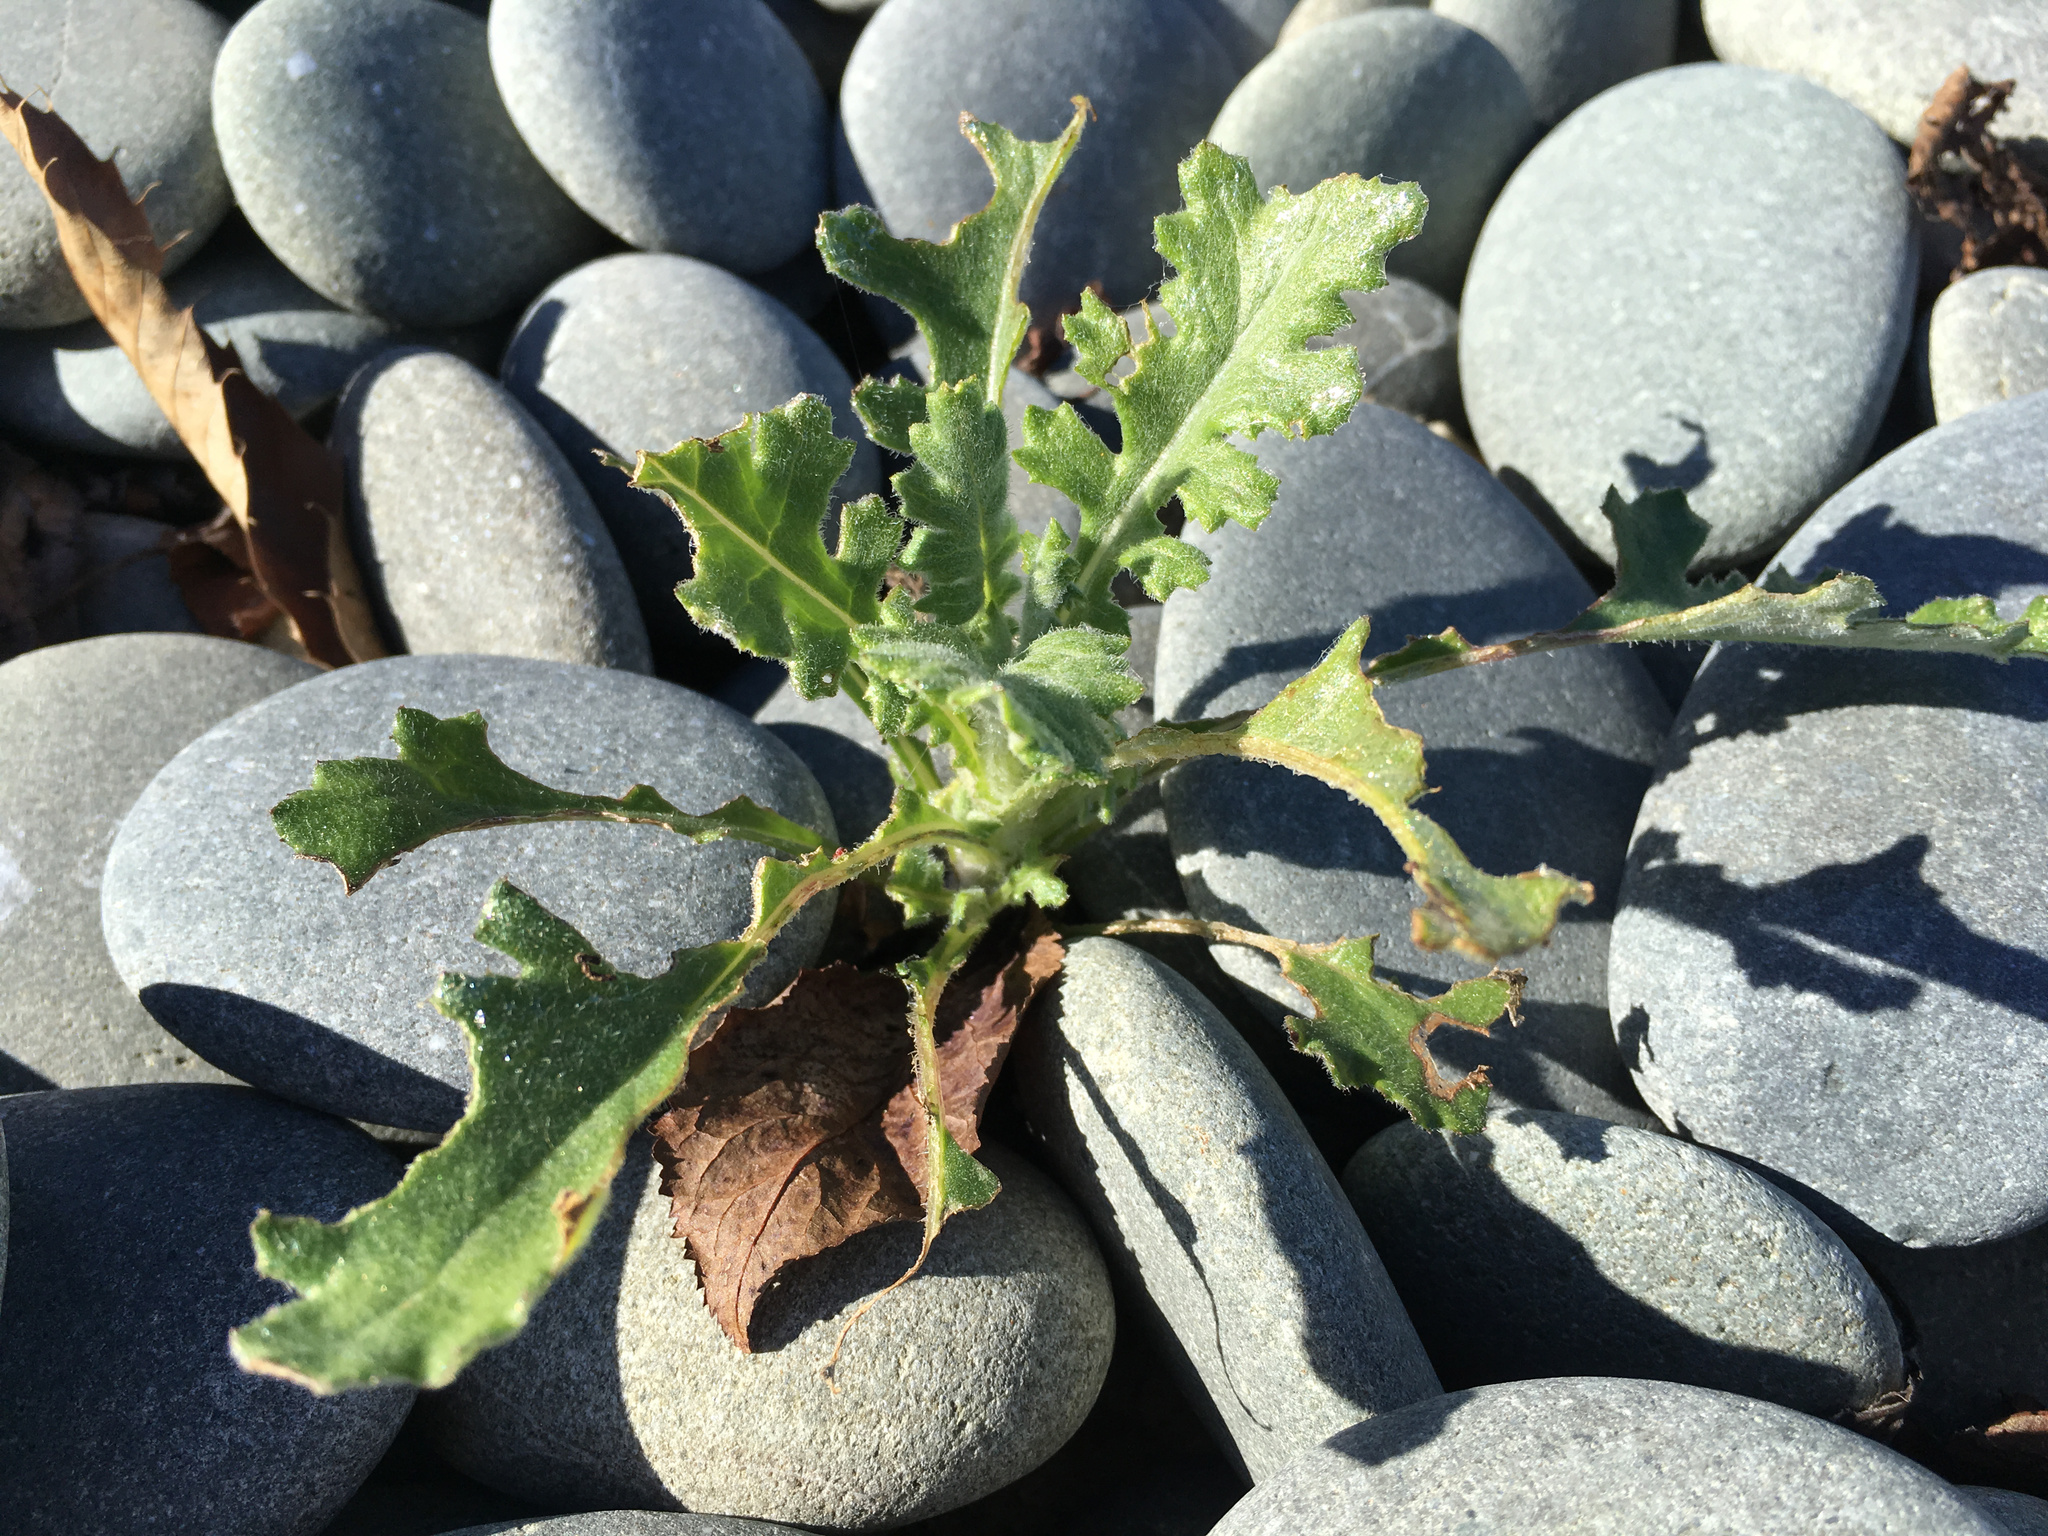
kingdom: Plantae
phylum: Tracheophyta
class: Magnoliopsida
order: Asterales
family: Asteraceae
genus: Senecio
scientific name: Senecio glomeratus
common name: Cutleaf burnweed
